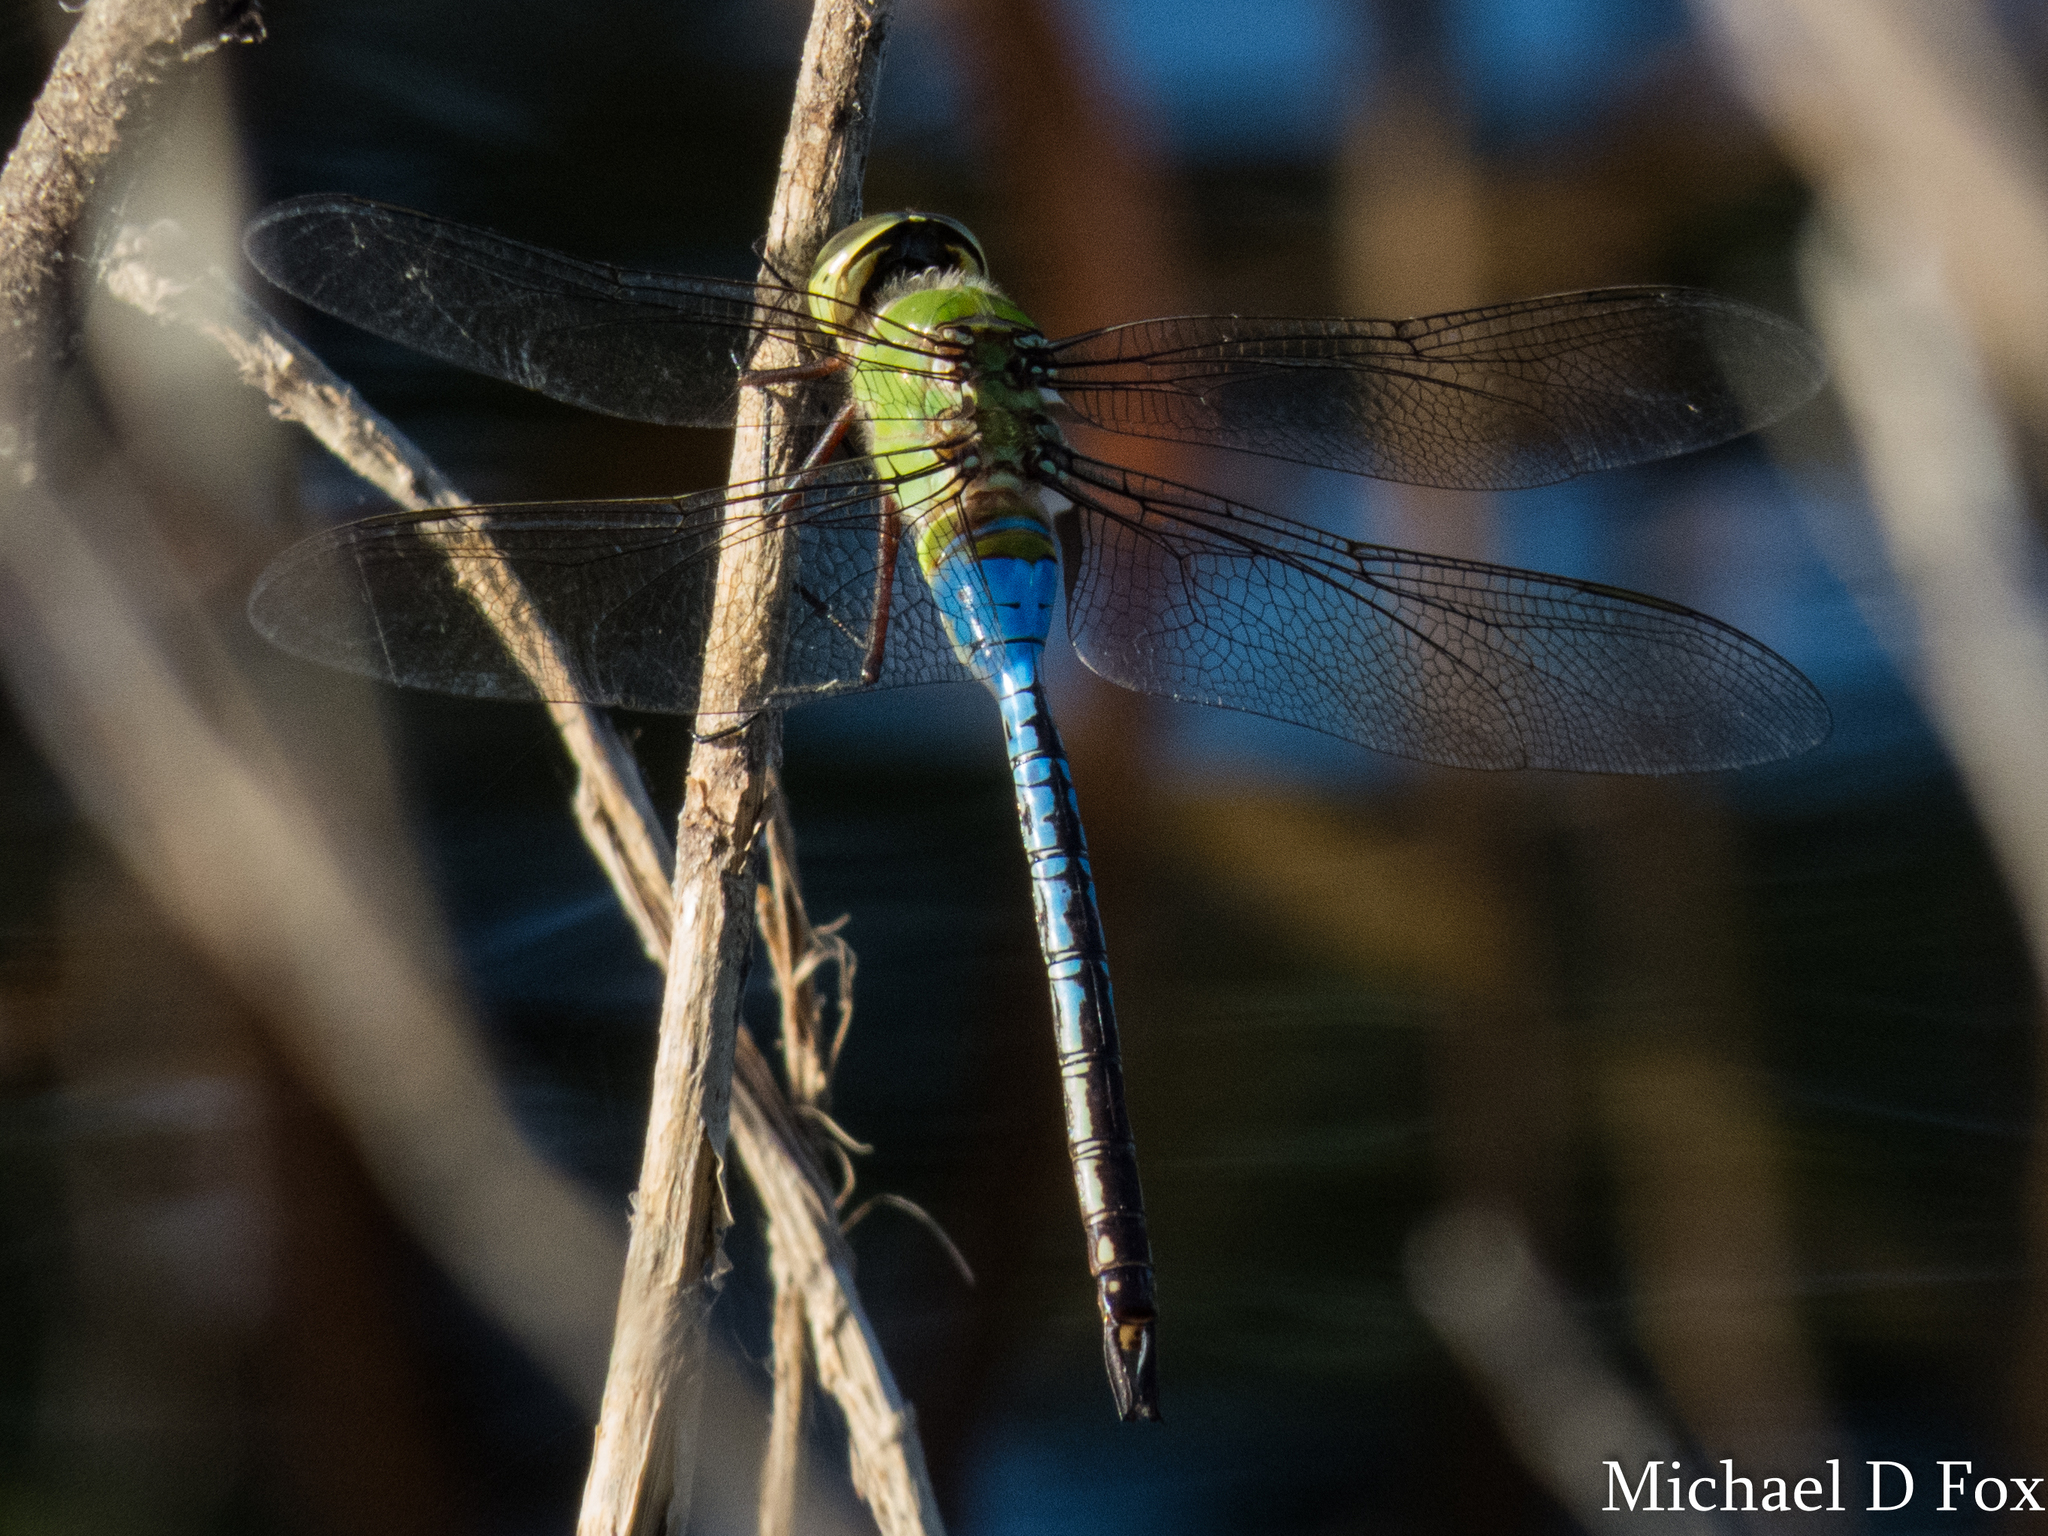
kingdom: Animalia
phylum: Arthropoda
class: Insecta
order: Odonata
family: Aeshnidae
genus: Anax
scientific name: Anax junius
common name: Common green darner
